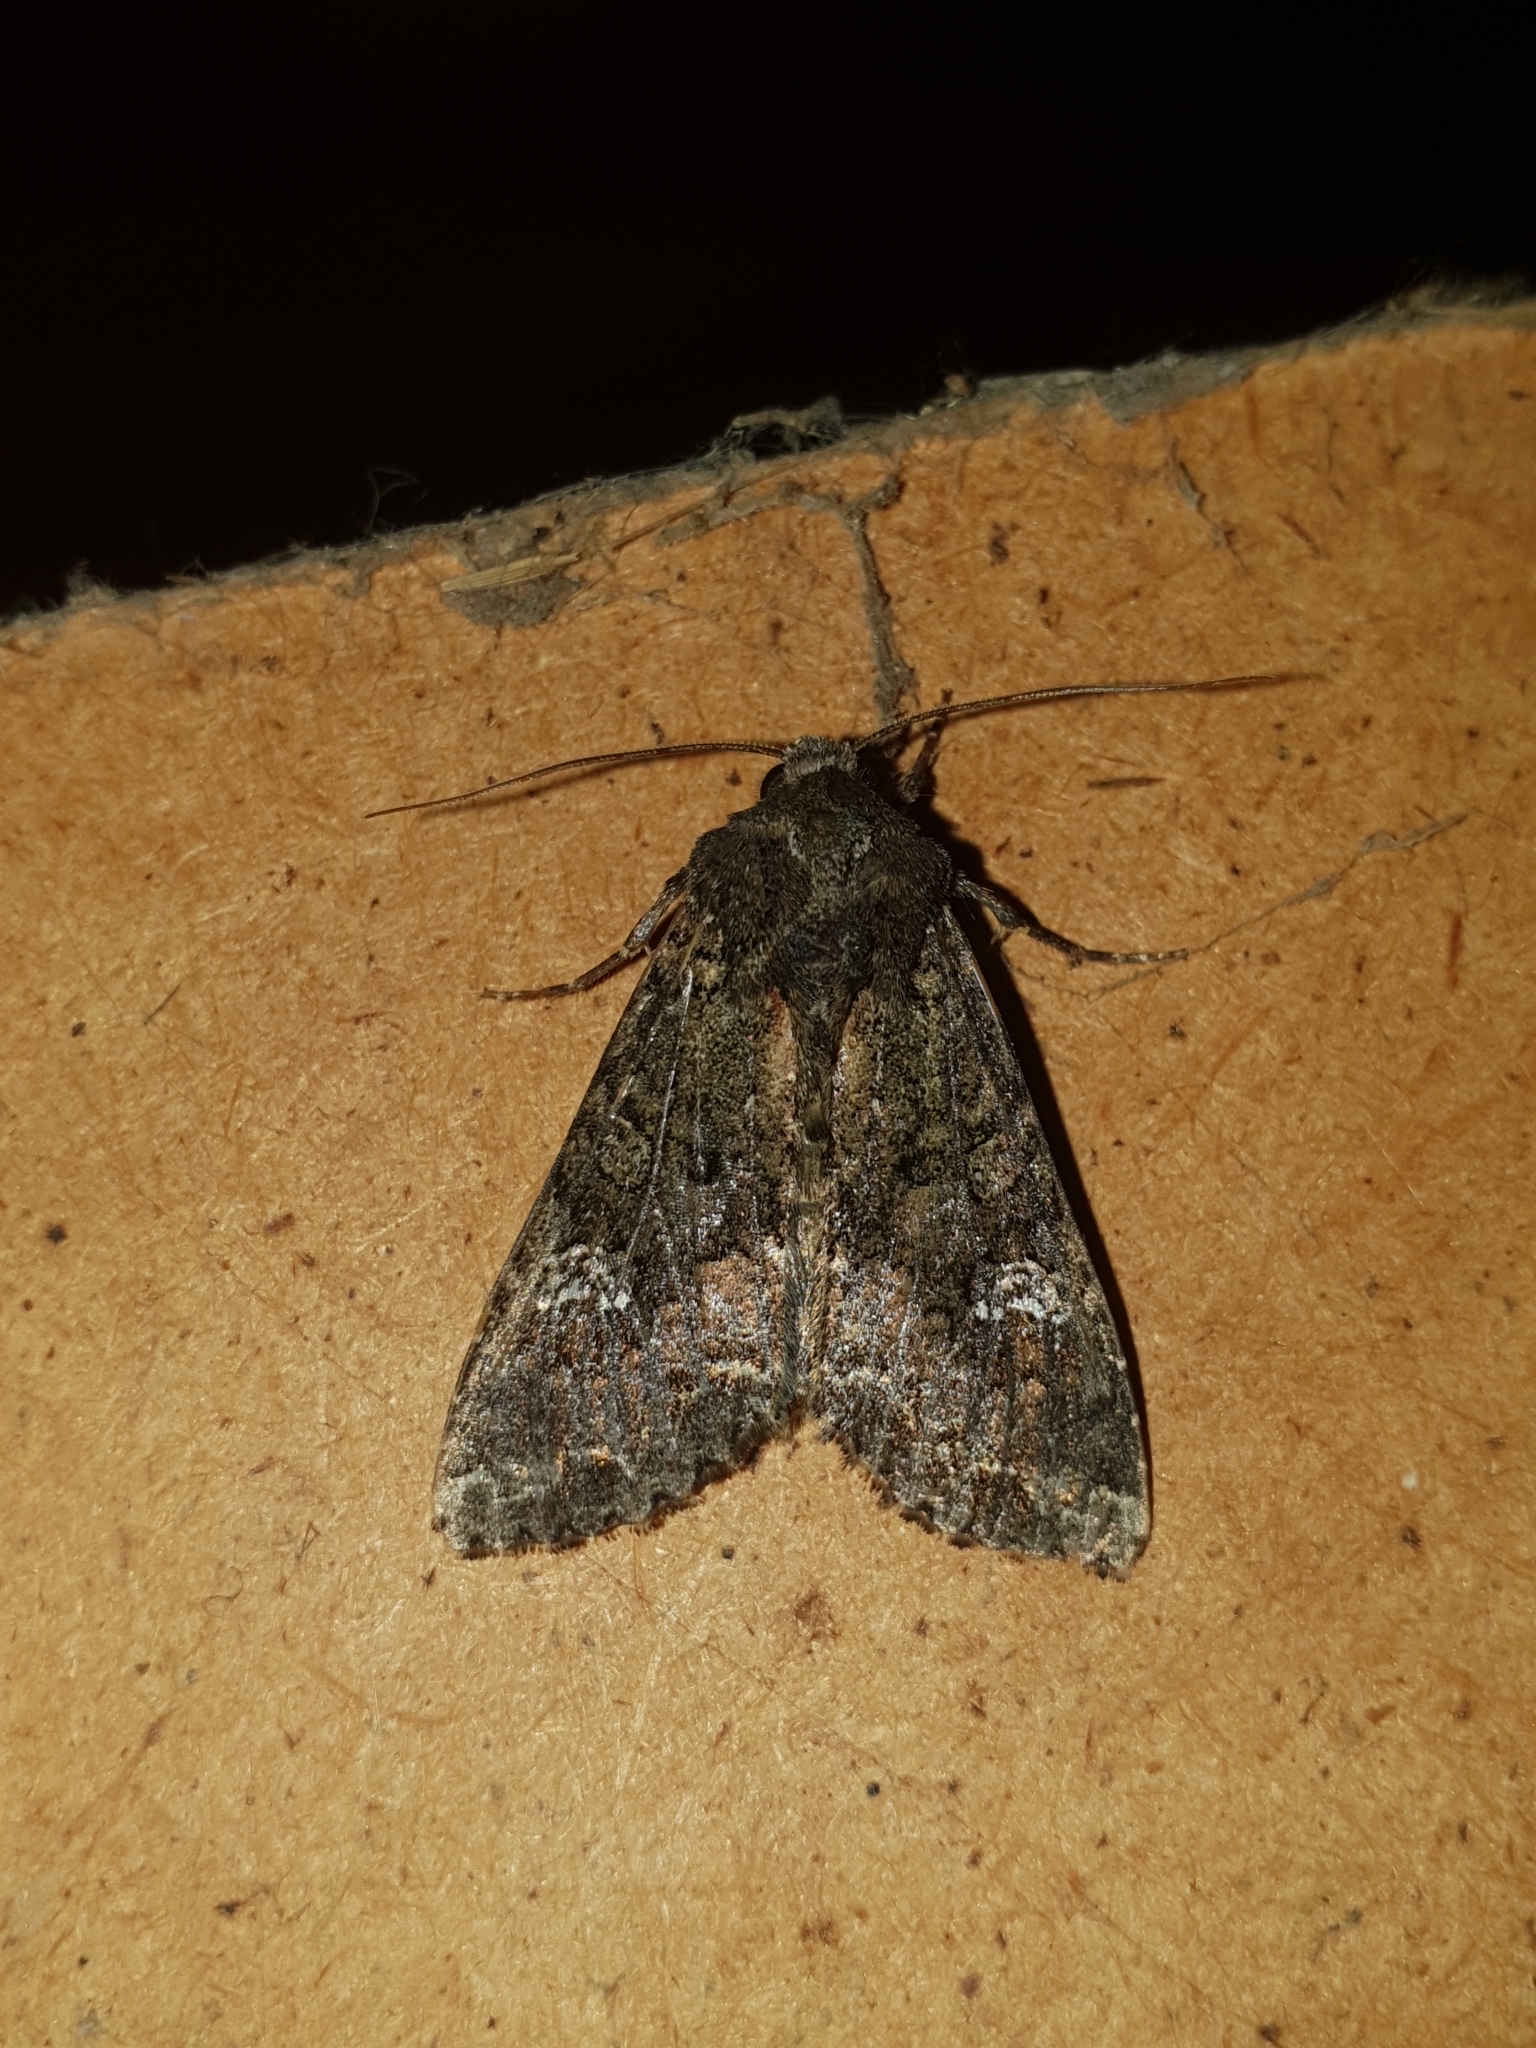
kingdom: Animalia
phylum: Arthropoda
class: Insecta
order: Lepidoptera
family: Noctuidae
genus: Mamestra
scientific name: Mamestra brassicae
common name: Cabbage moth
